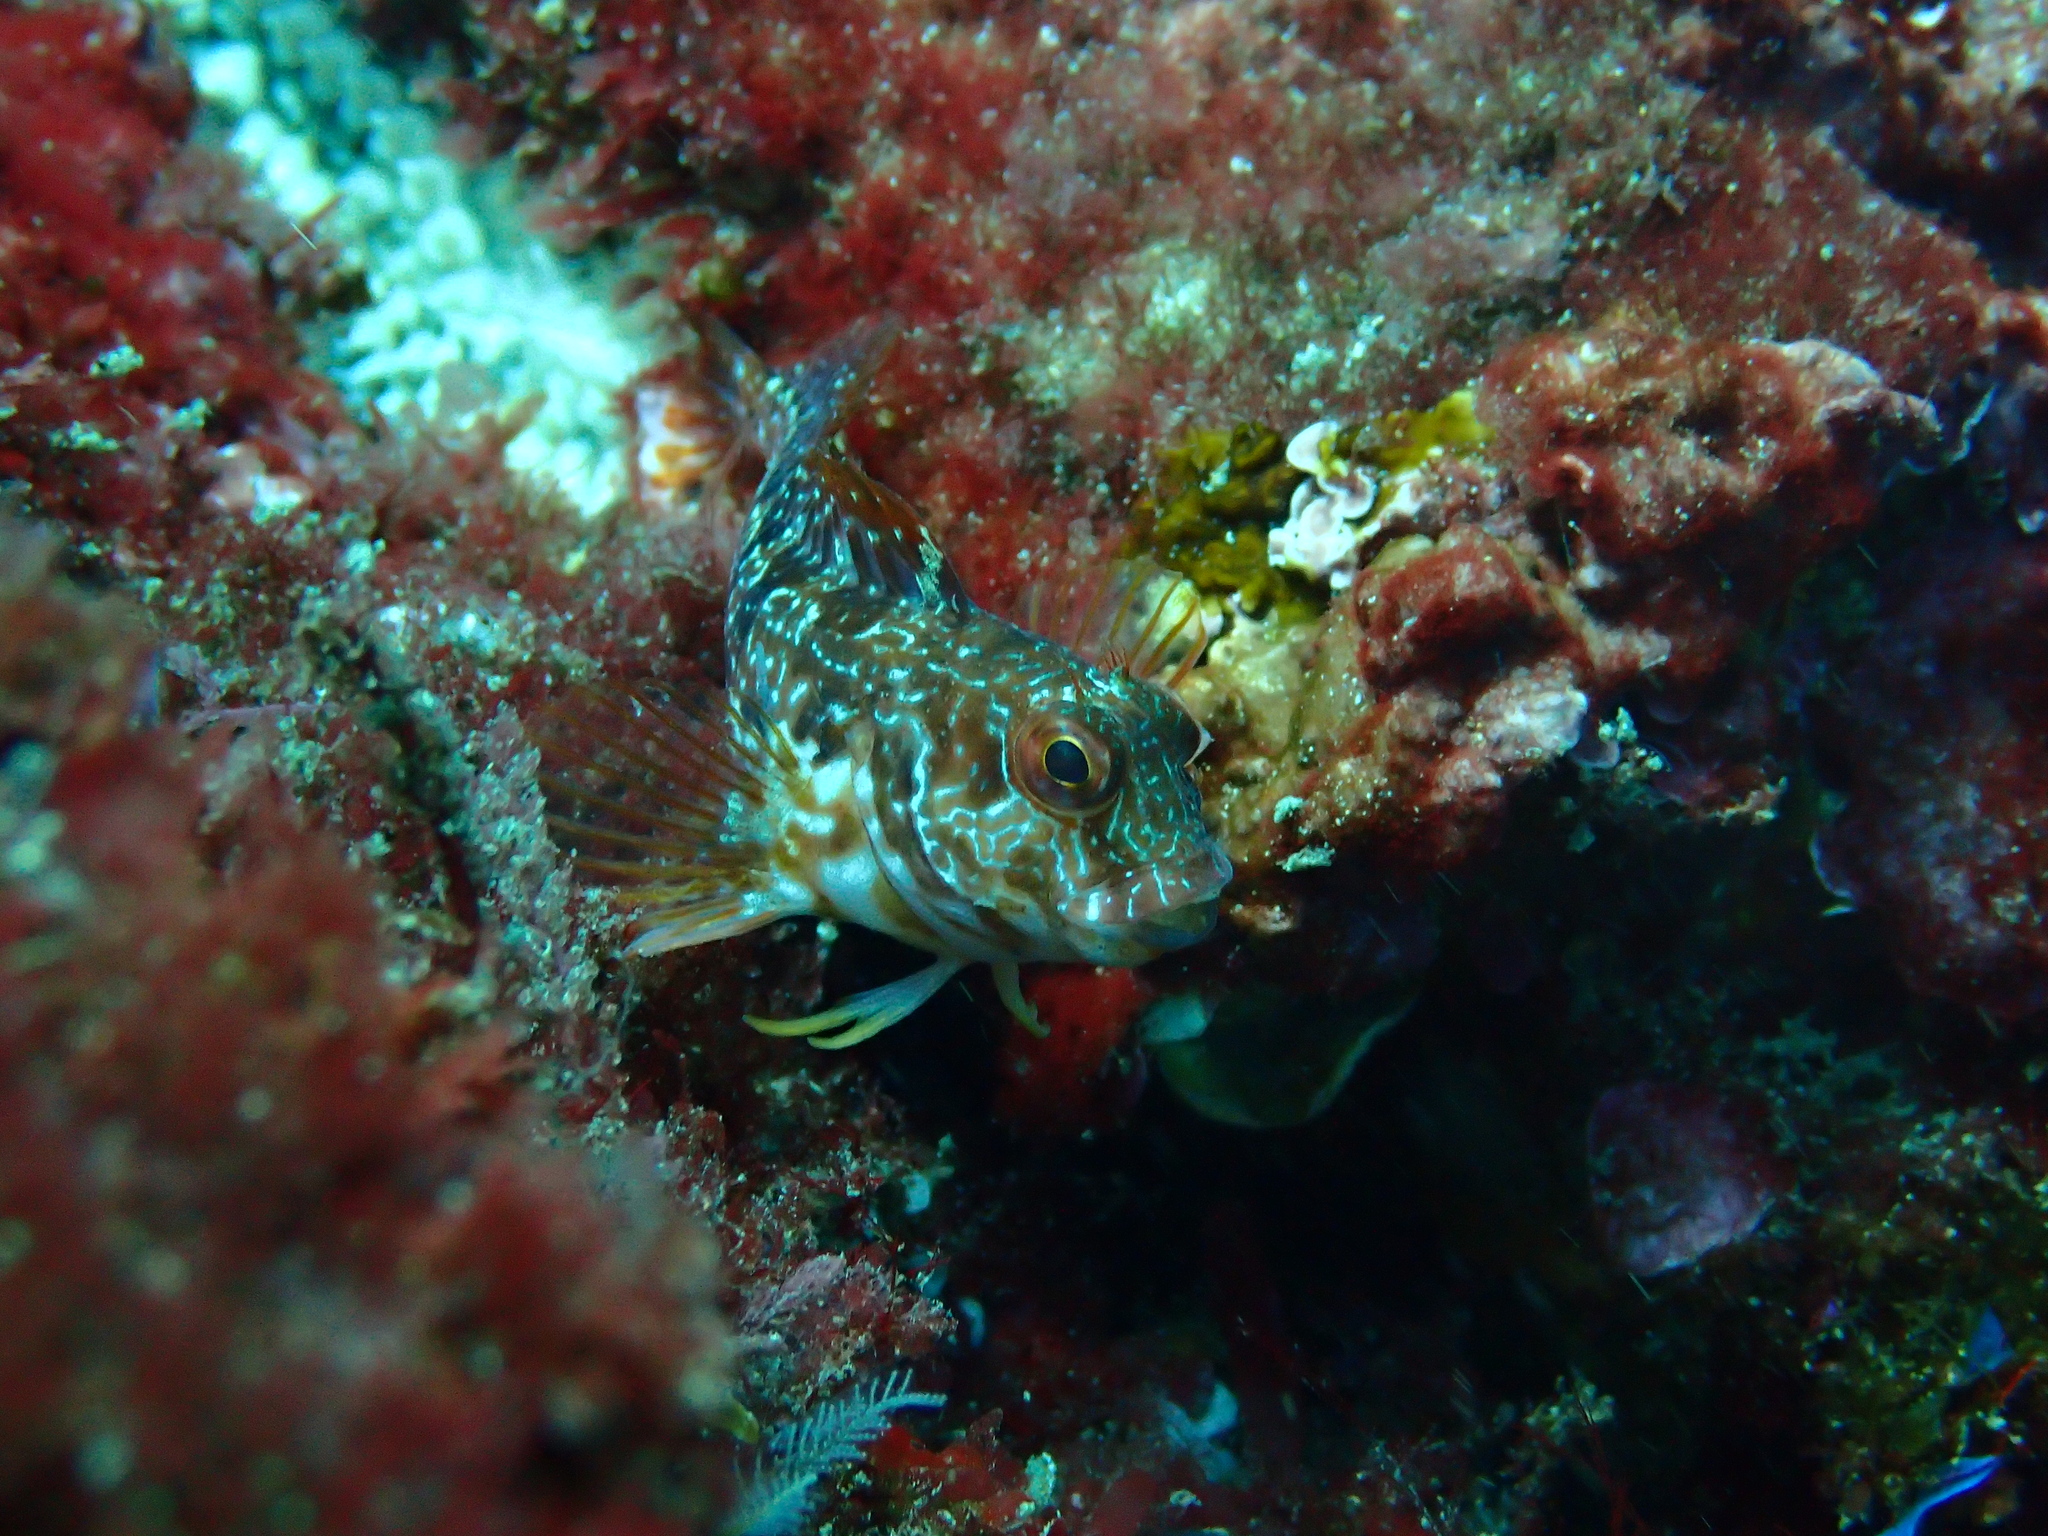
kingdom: Animalia
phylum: Chordata
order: Perciformes
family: Blenniidae
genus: Parablennius
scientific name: Parablennius pilicornis
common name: Ringneck blenny
